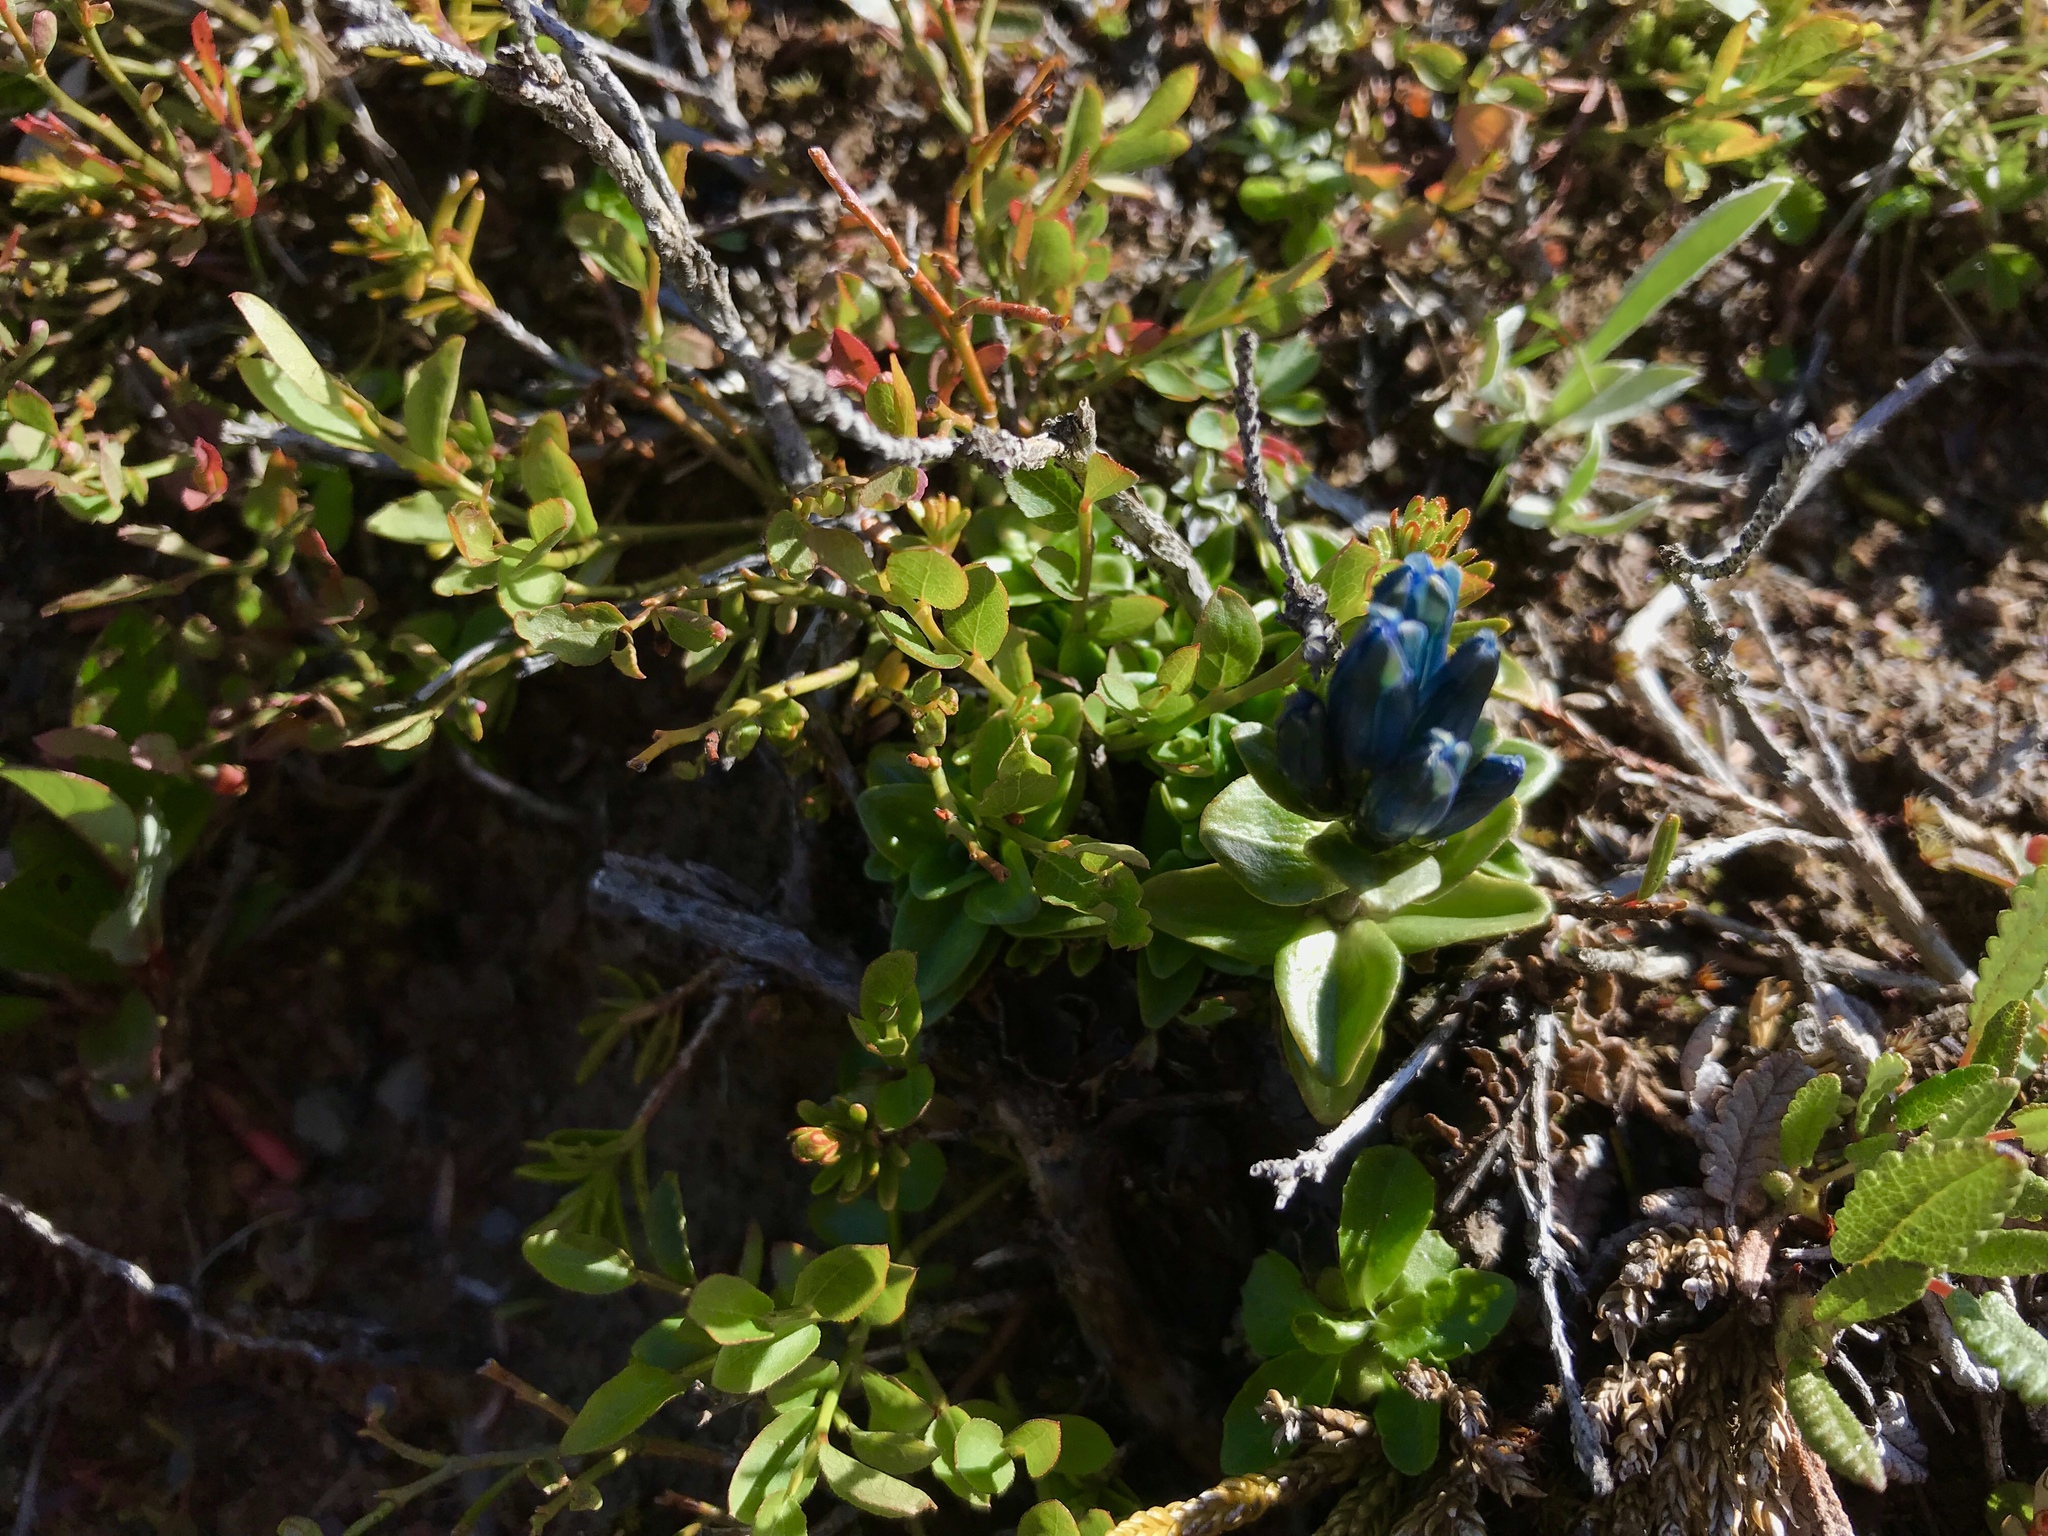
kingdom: Plantae
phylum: Tracheophyta
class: Magnoliopsida
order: Gentianales
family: Gentianaceae
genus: Gentiana
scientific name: Gentiana glauca
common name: Alpine gentian
